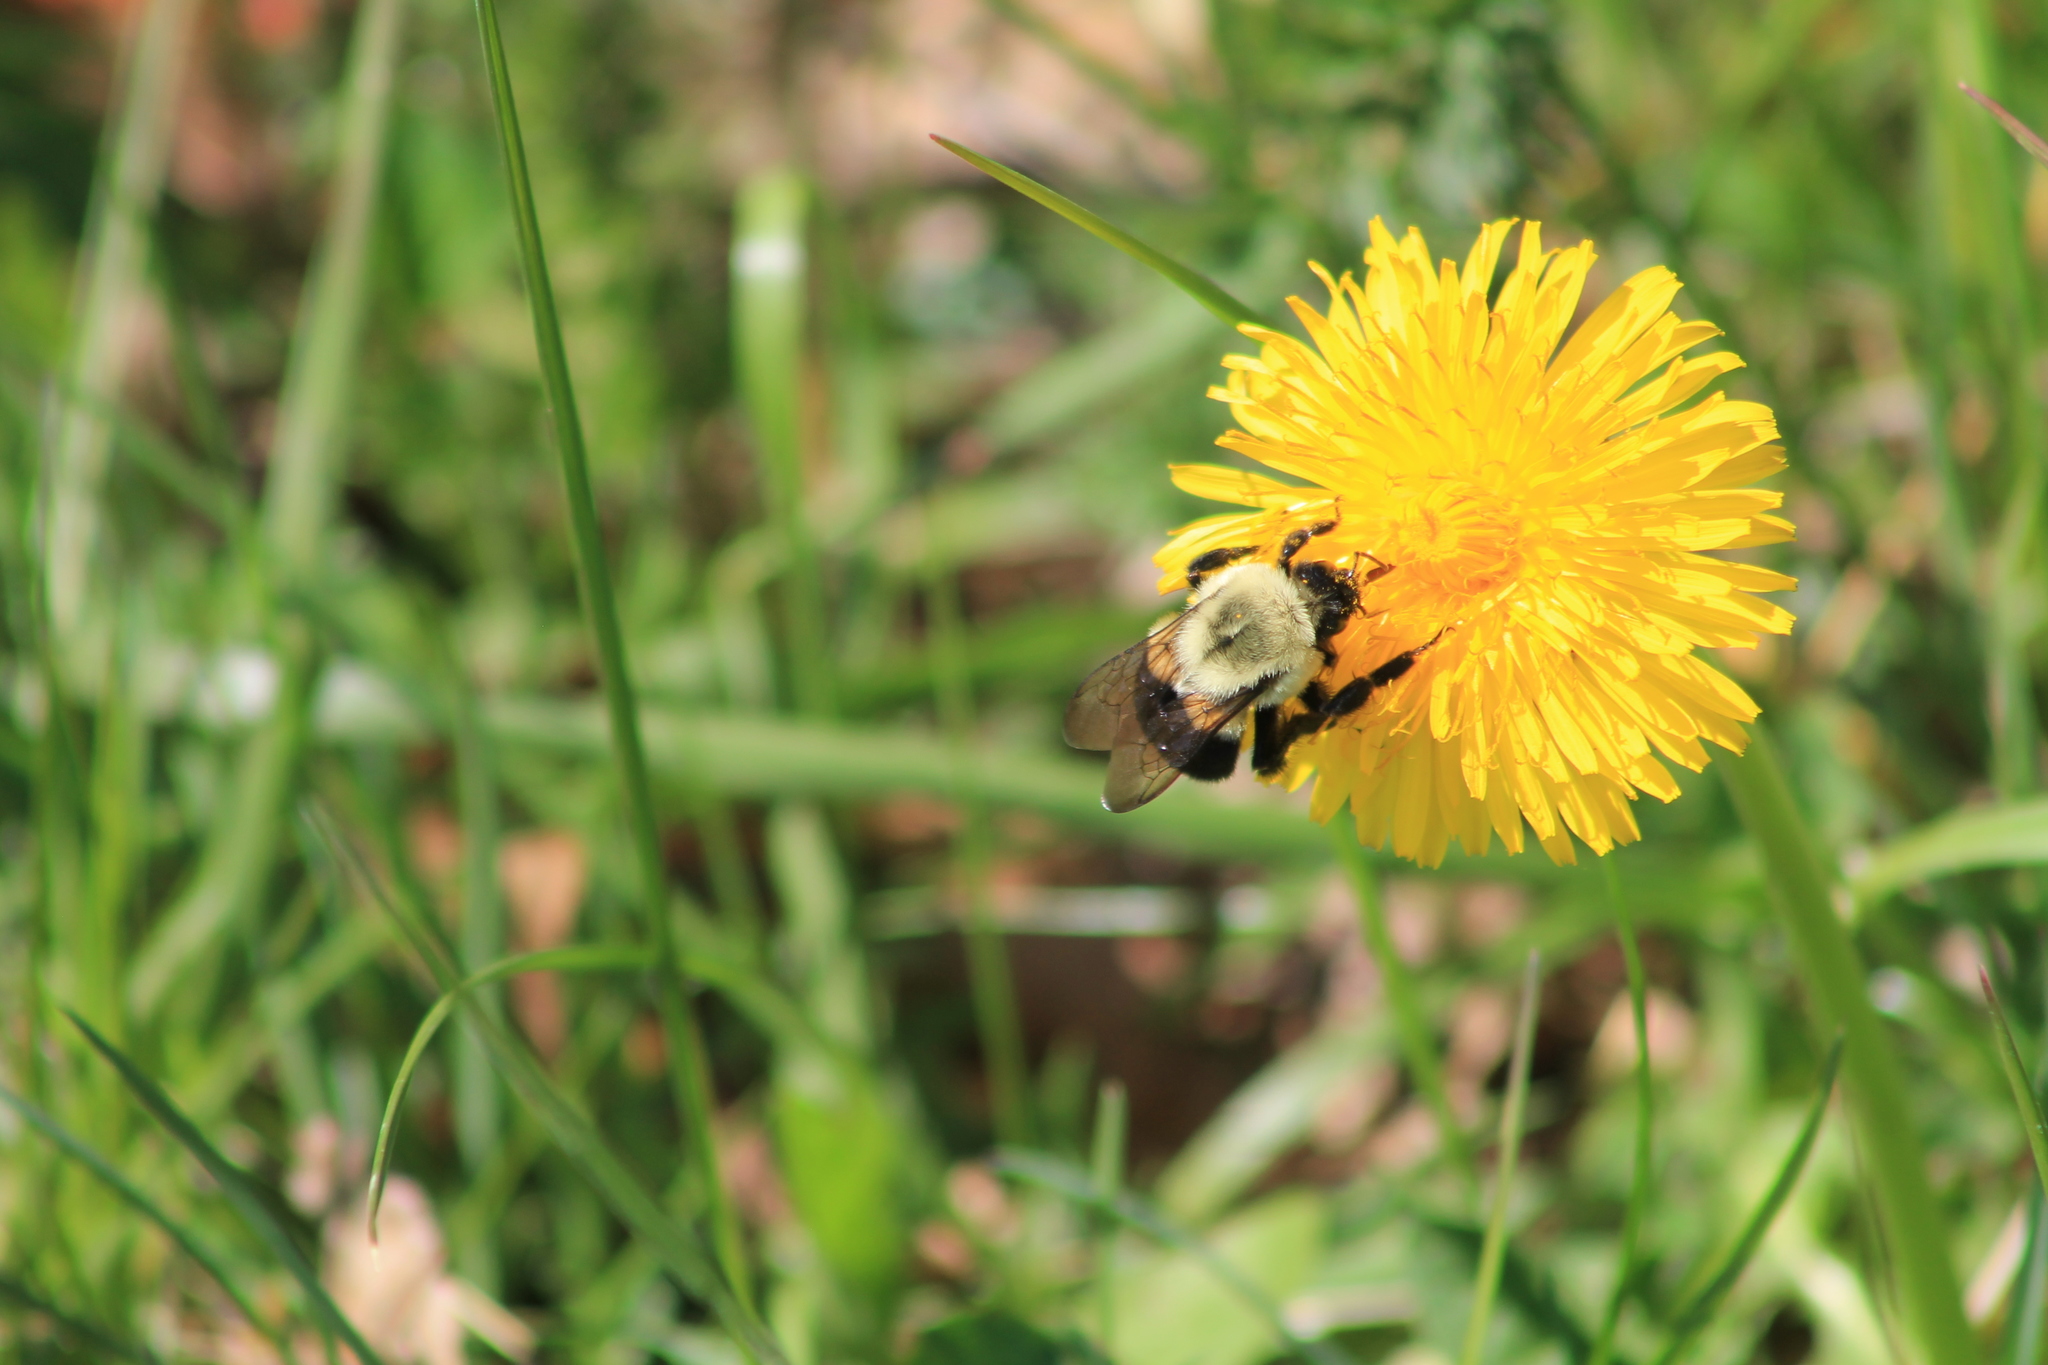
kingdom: Animalia
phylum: Arthropoda
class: Insecta
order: Hymenoptera
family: Apidae
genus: Bombus
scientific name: Bombus impatiens
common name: Common eastern bumble bee
